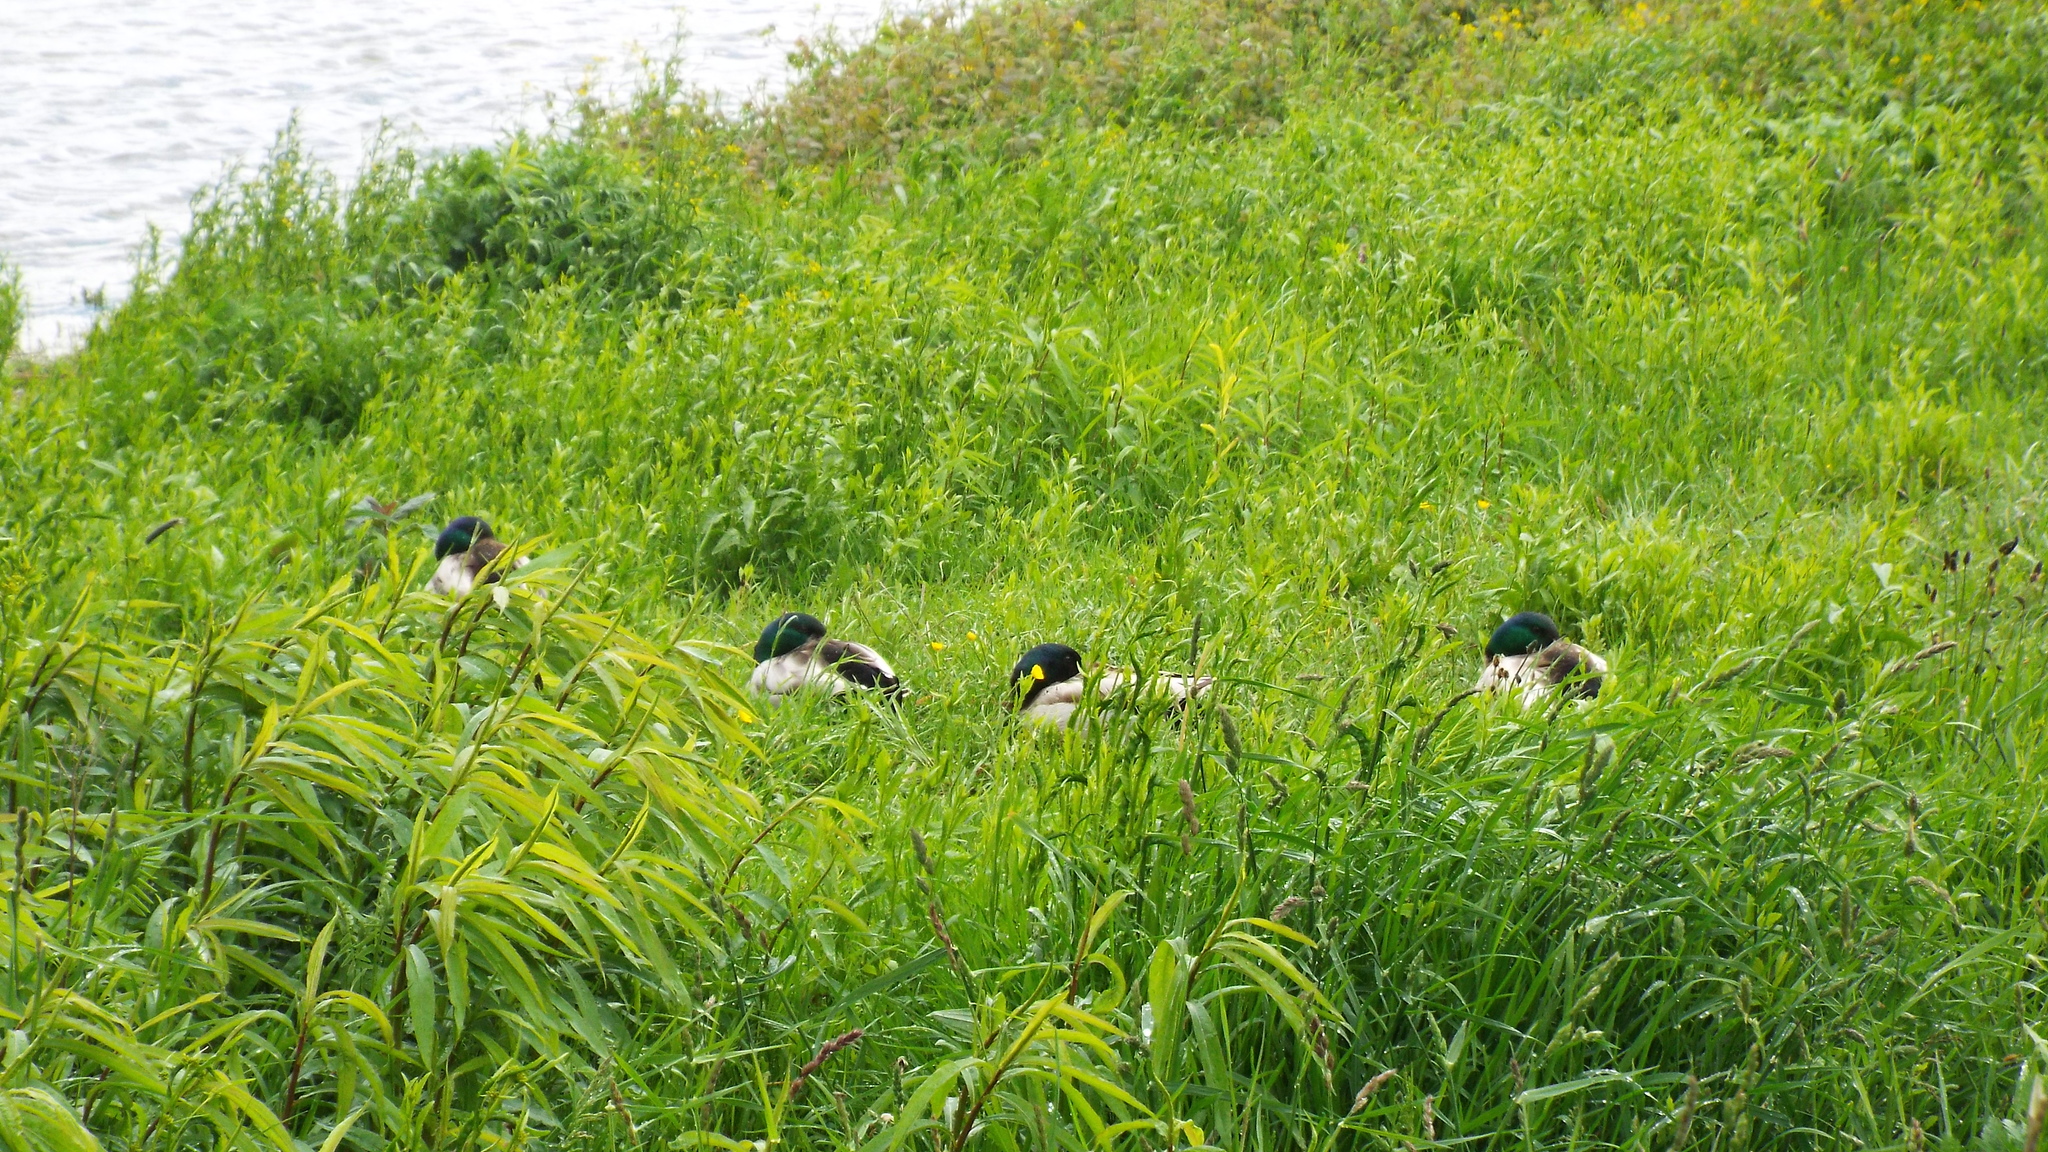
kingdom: Animalia
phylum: Chordata
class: Aves
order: Anseriformes
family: Anatidae
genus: Anas
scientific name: Anas platyrhynchos
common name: Mallard
